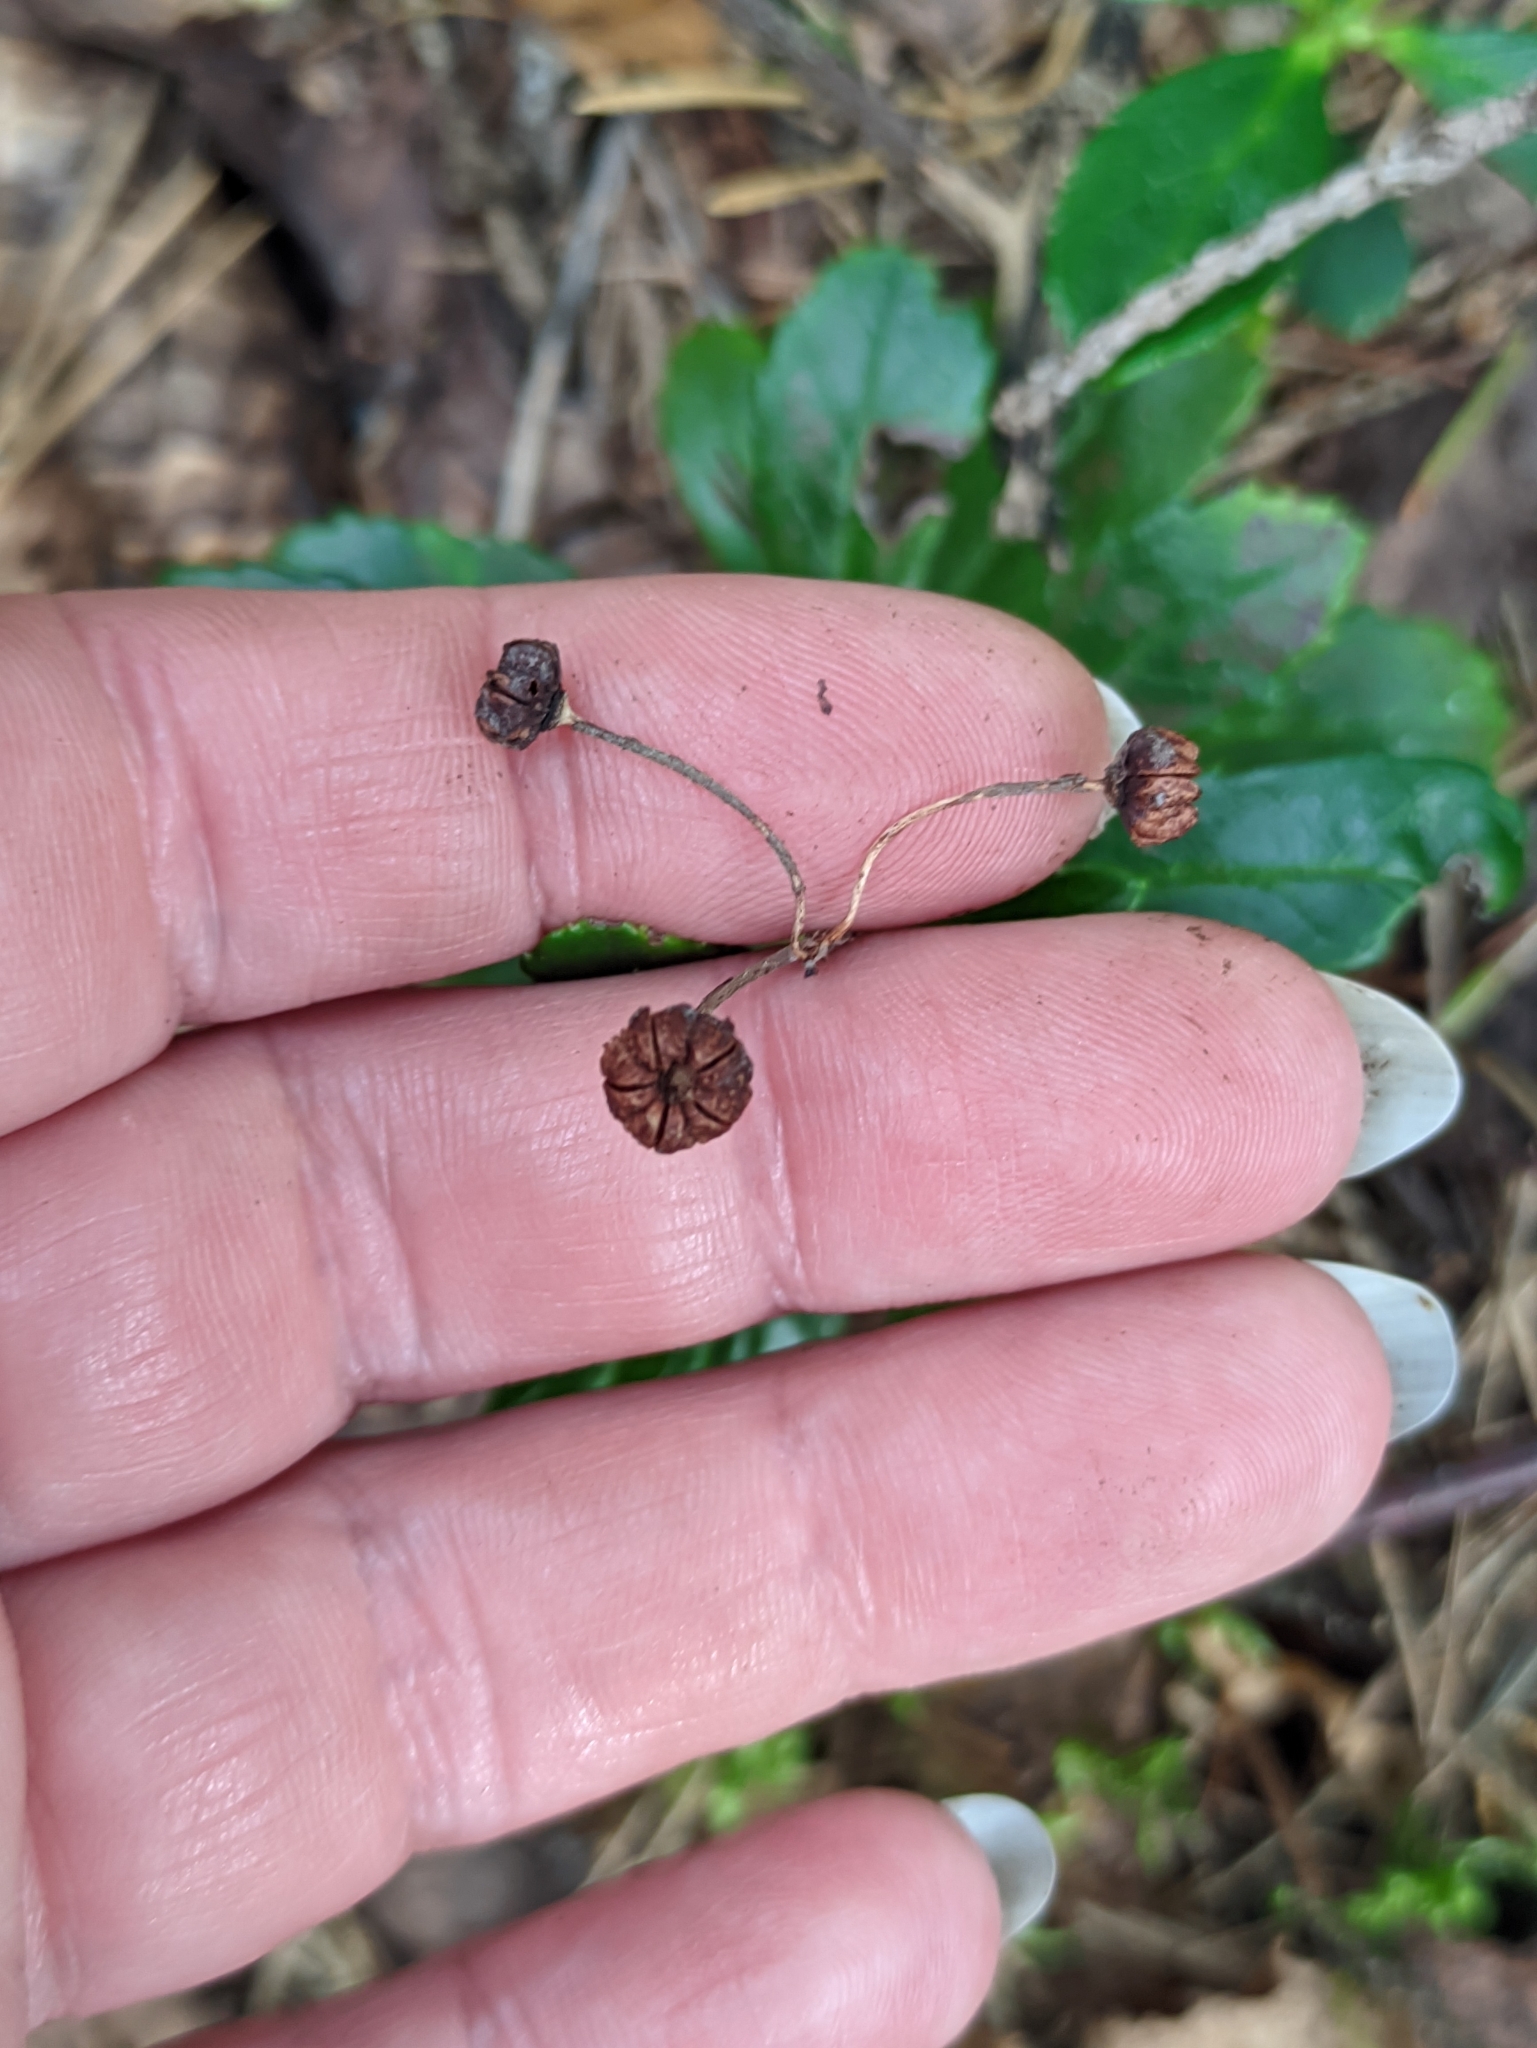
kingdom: Plantae
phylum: Tracheophyta
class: Magnoliopsida
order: Ericales
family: Ericaceae
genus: Chimaphila
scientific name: Chimaphila umbellata
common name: Pipsissewa
